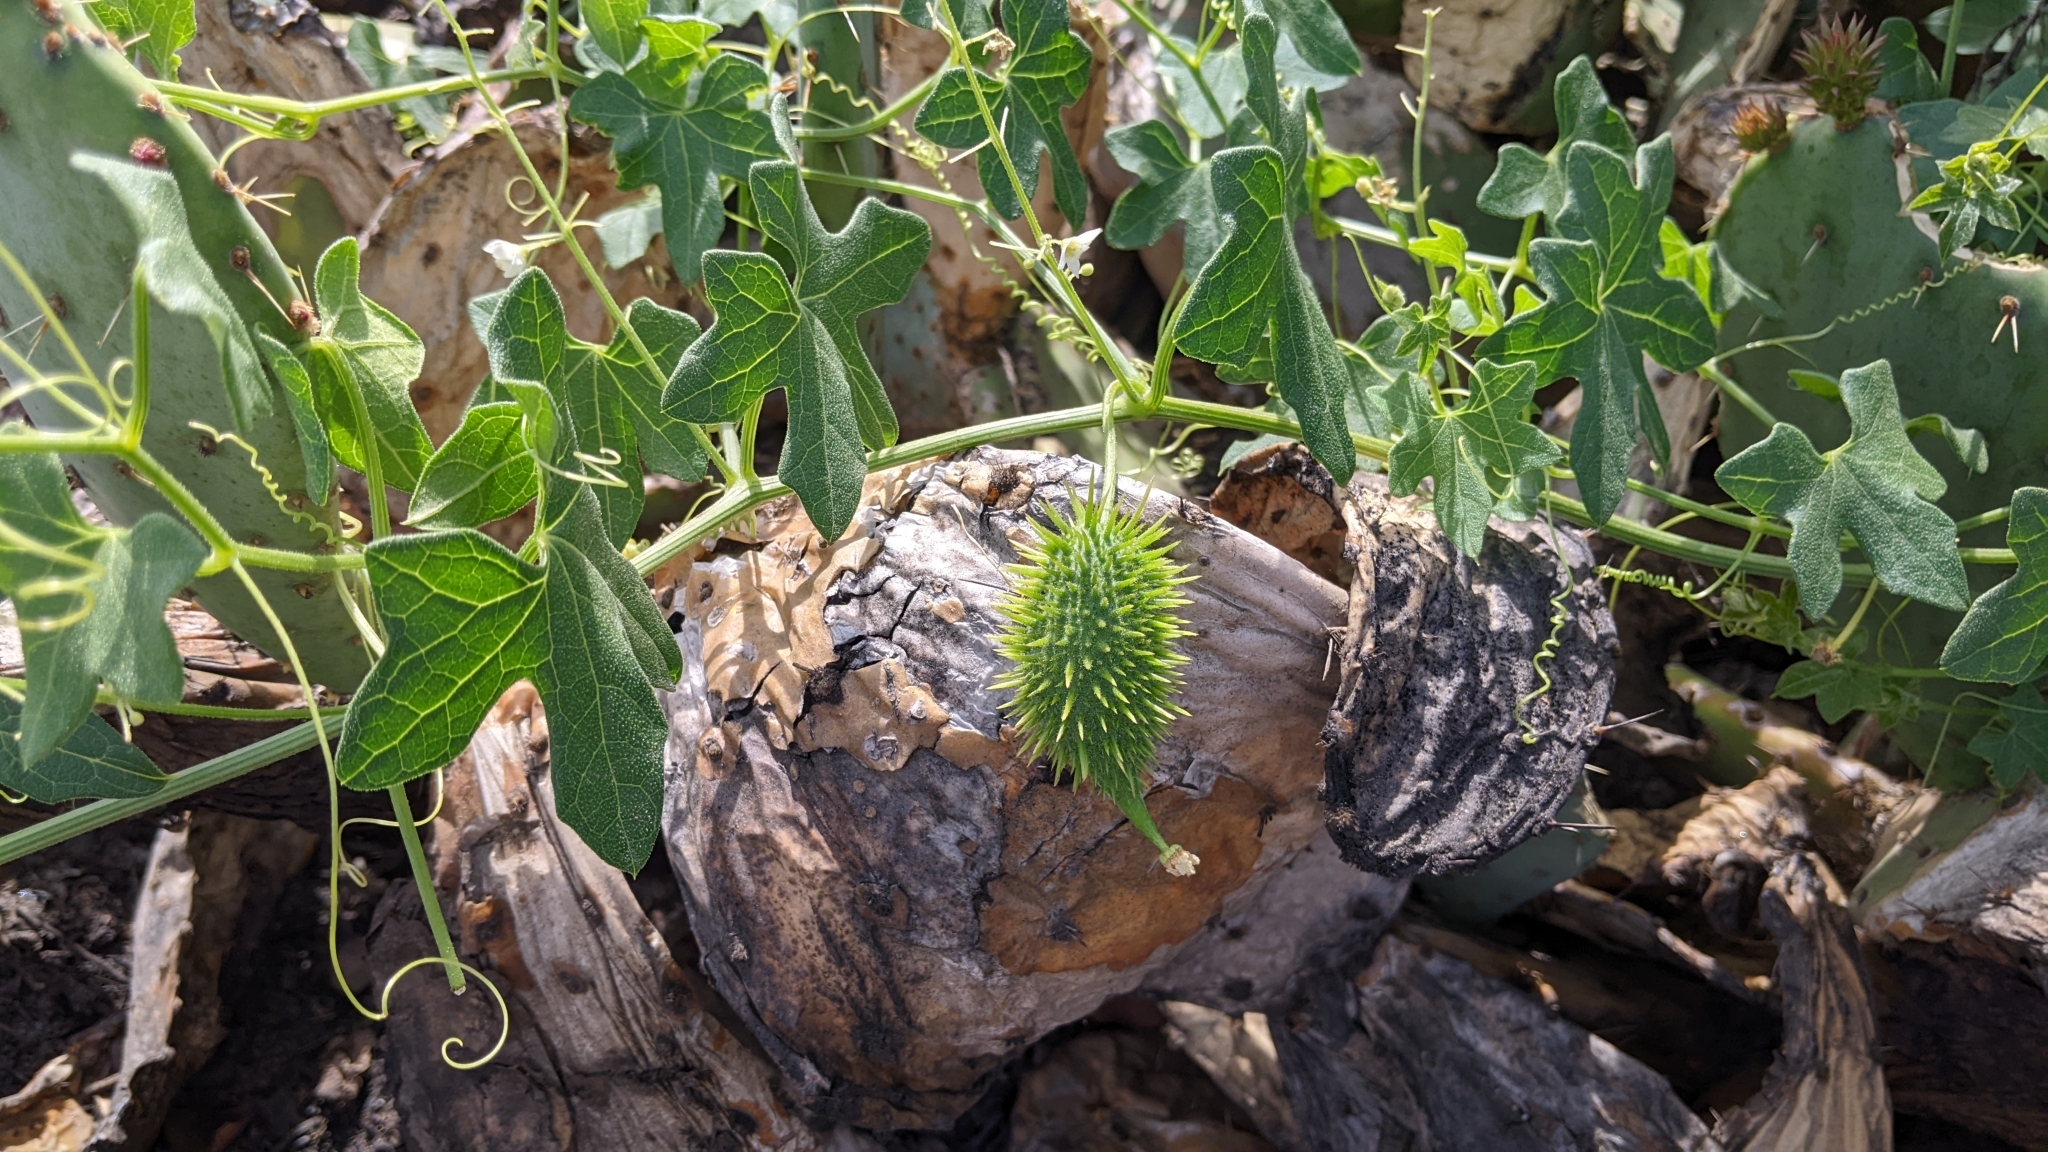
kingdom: Plantae
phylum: Tracheophyta
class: Magnoliopsida
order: Cucurbitales
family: Cucurbitaceae
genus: Marah
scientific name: Marah macrocarpa
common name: Cucamonga manroot
